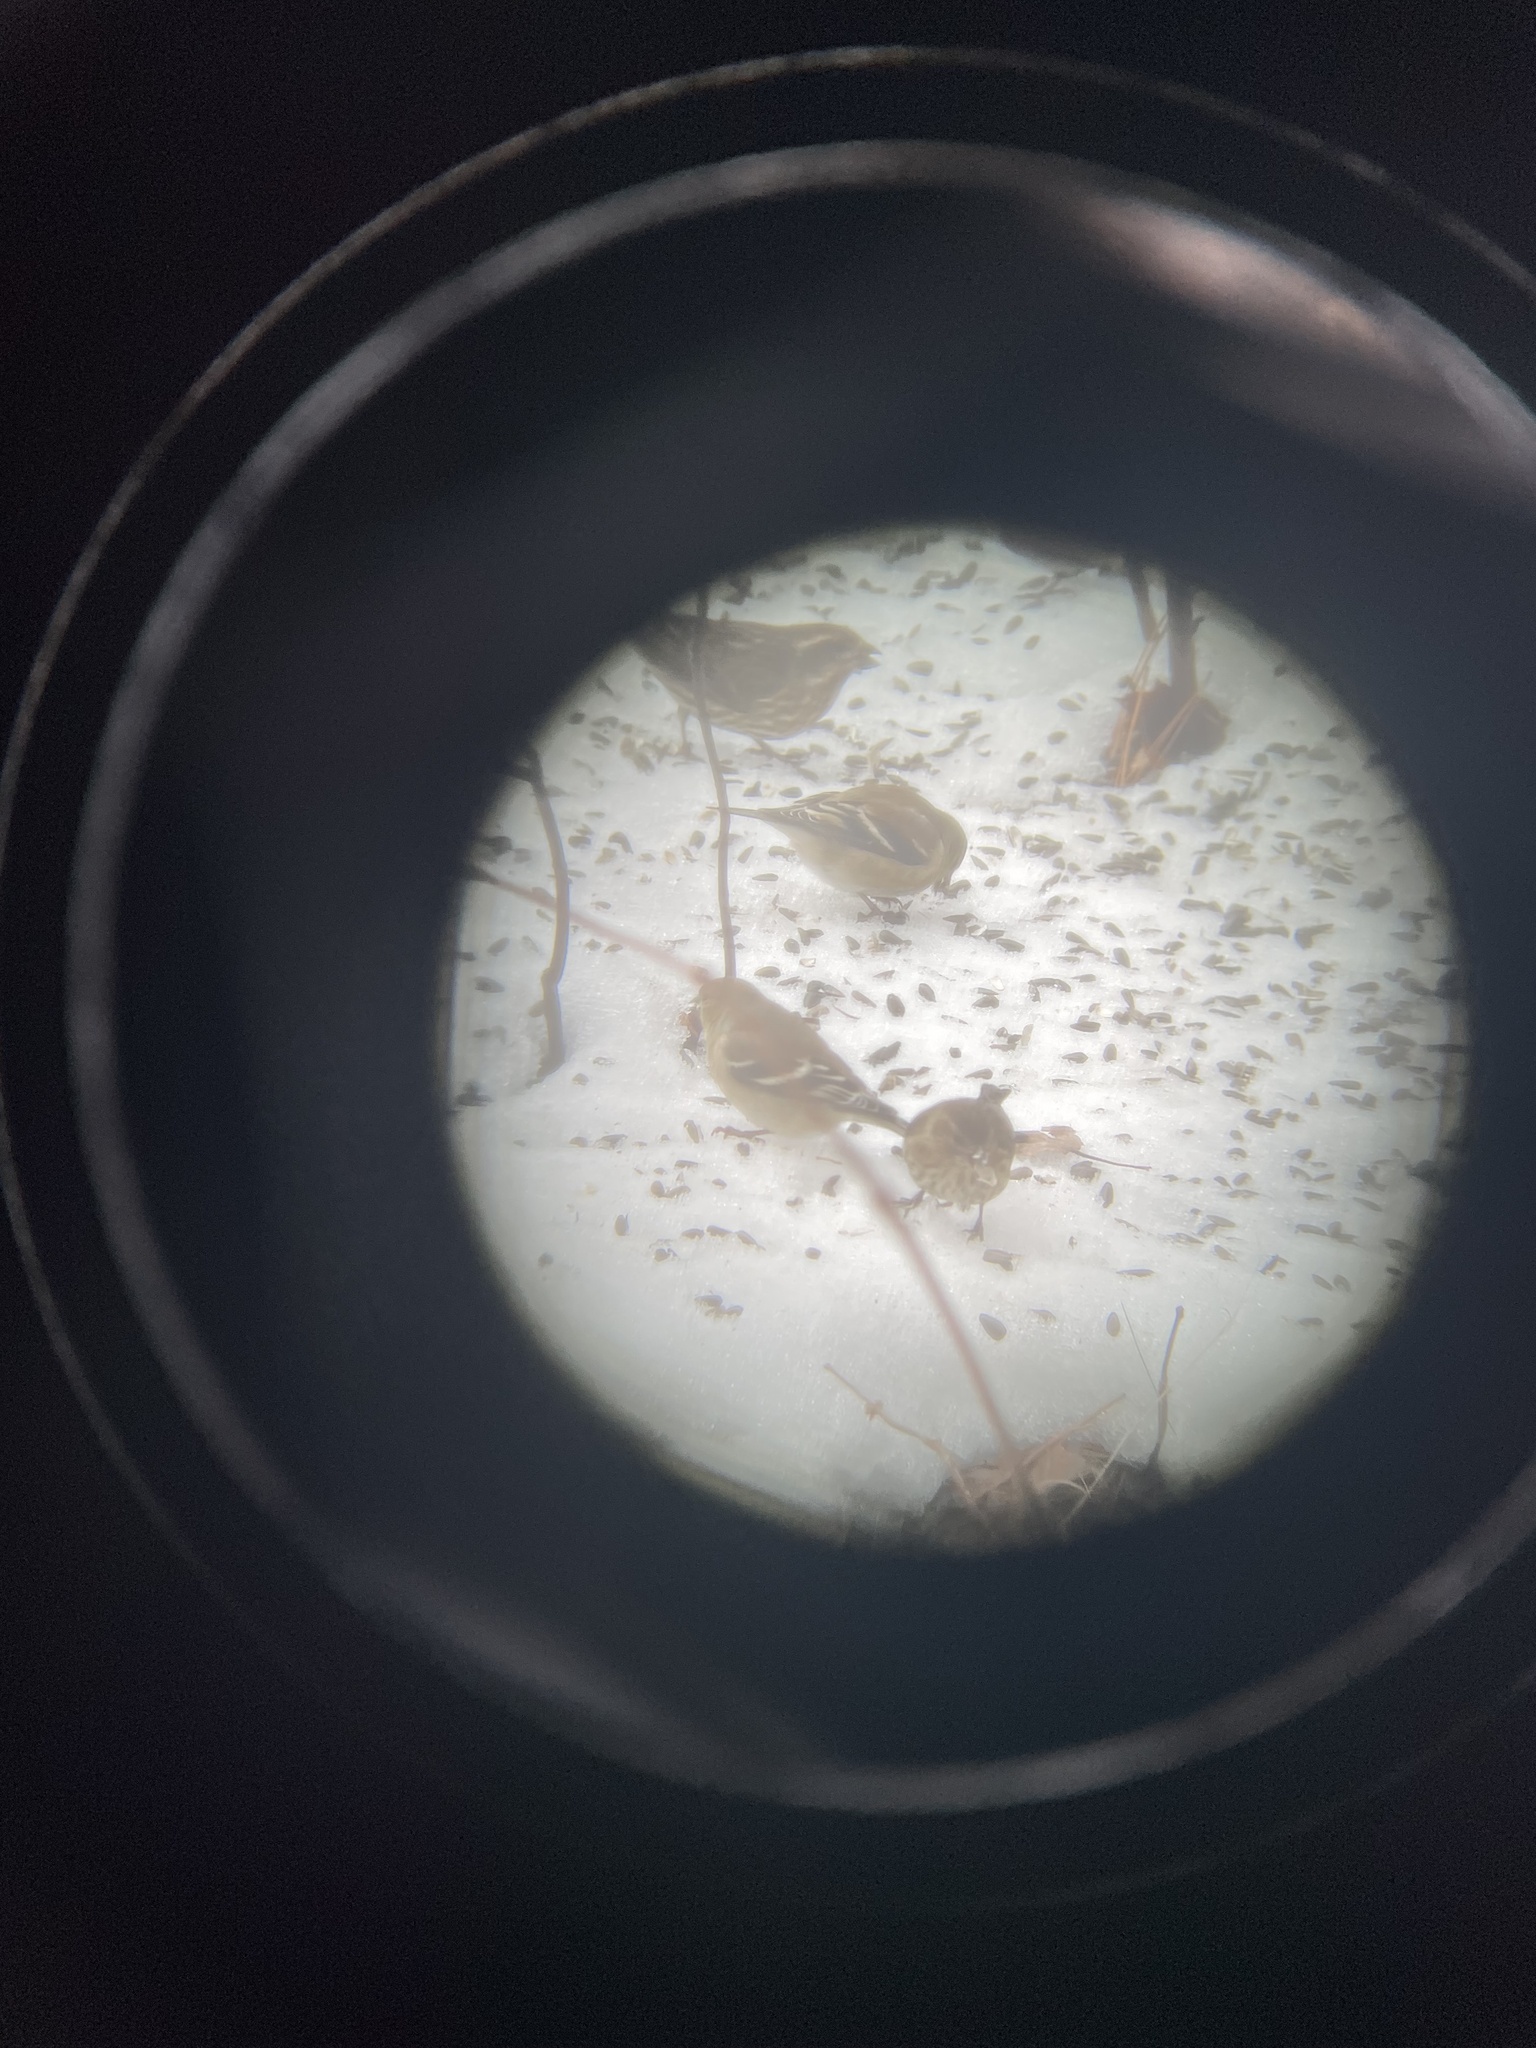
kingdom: Animalia
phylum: Chordata
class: Aves
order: Passeriformes
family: Fringillidae
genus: Spinus
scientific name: Spinus pinus
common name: Pine siskin
